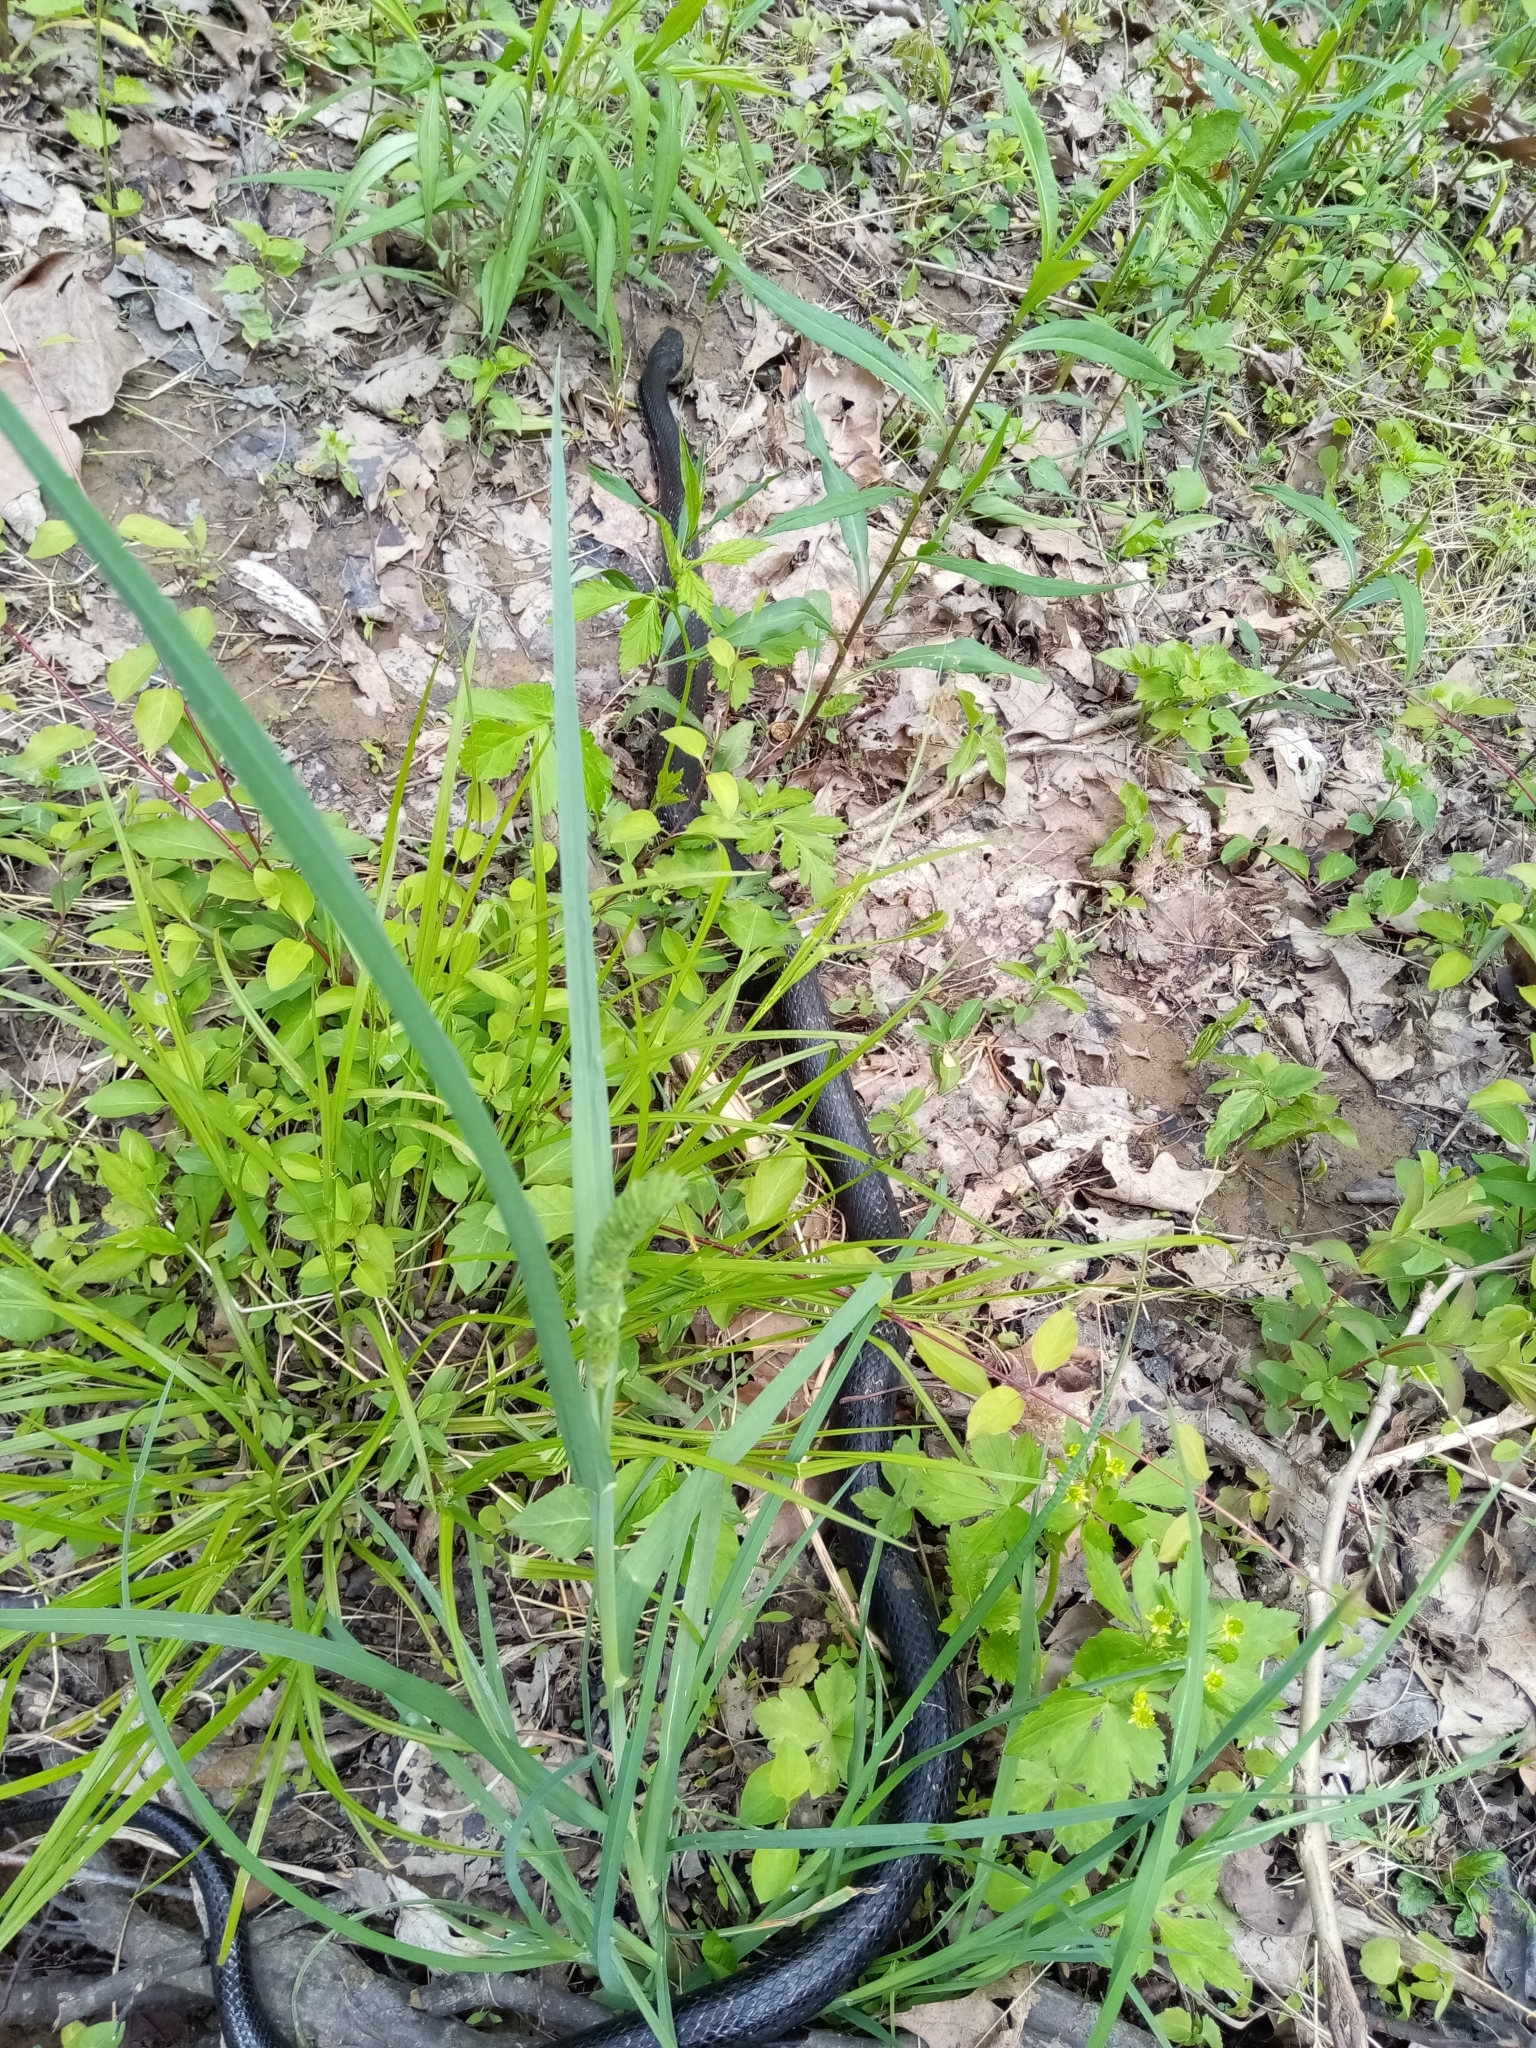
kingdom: Animalia
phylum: Chordata
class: Squamata
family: Colubridae
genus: Pantherophis
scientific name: Pantherophis spiloides
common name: Gray rat snake
